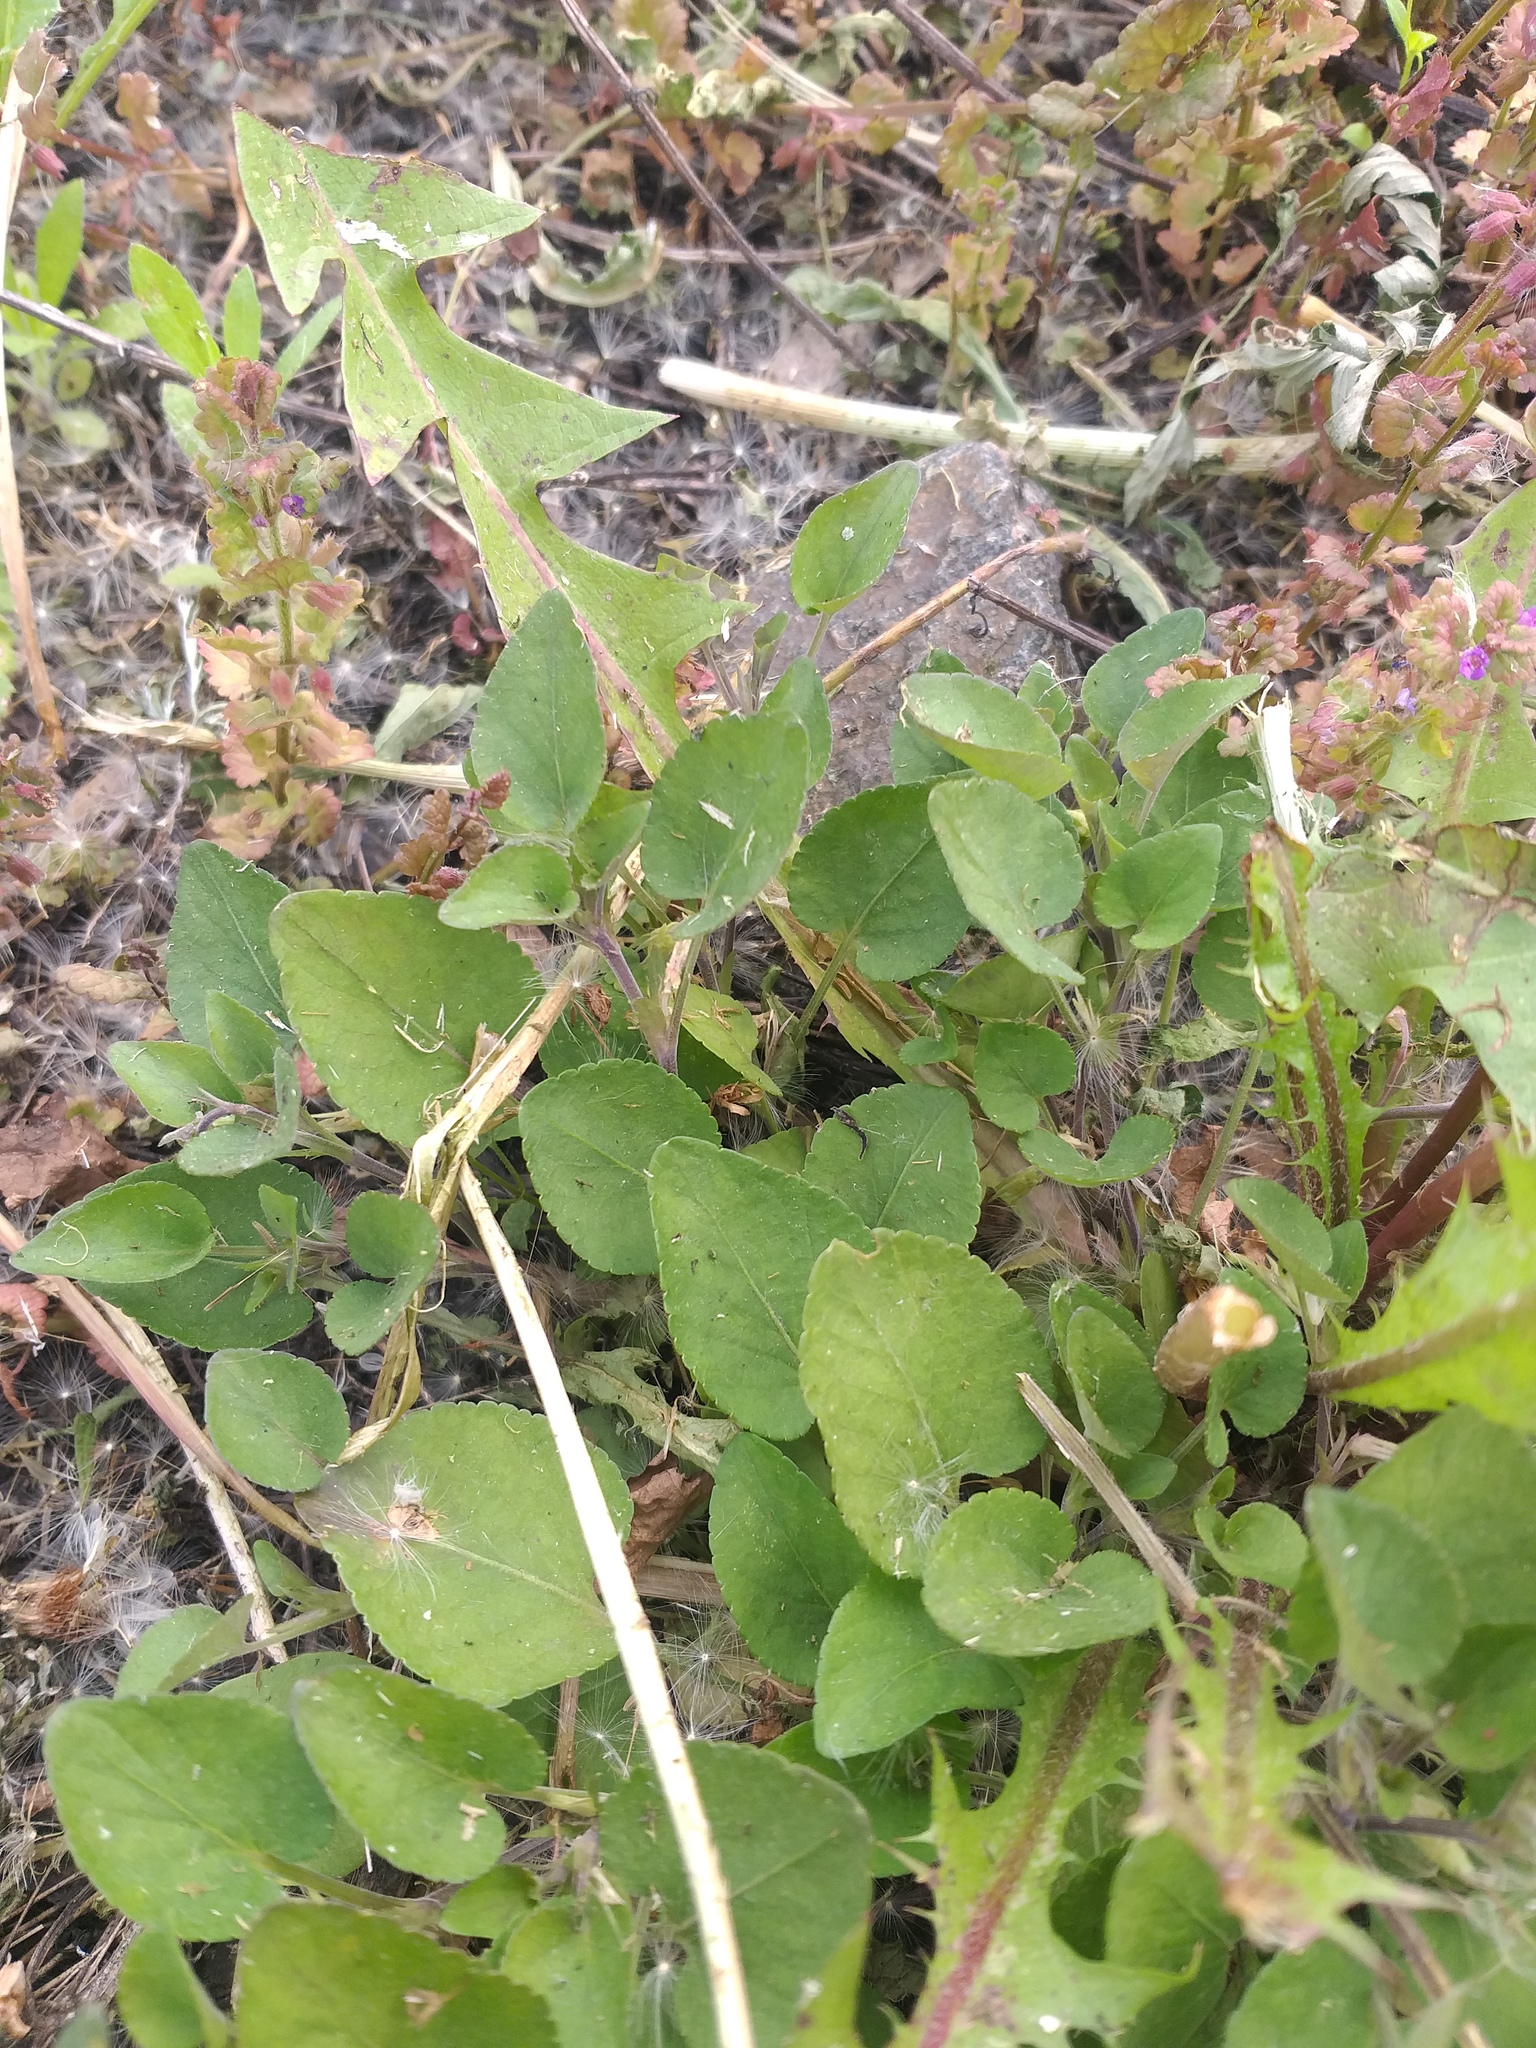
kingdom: Plantae
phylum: Tracheophyta
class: Magnoliopsida
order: Malpighiales
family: Violaceae
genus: Viola
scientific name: Viola rupestris
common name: Teesdale violet
